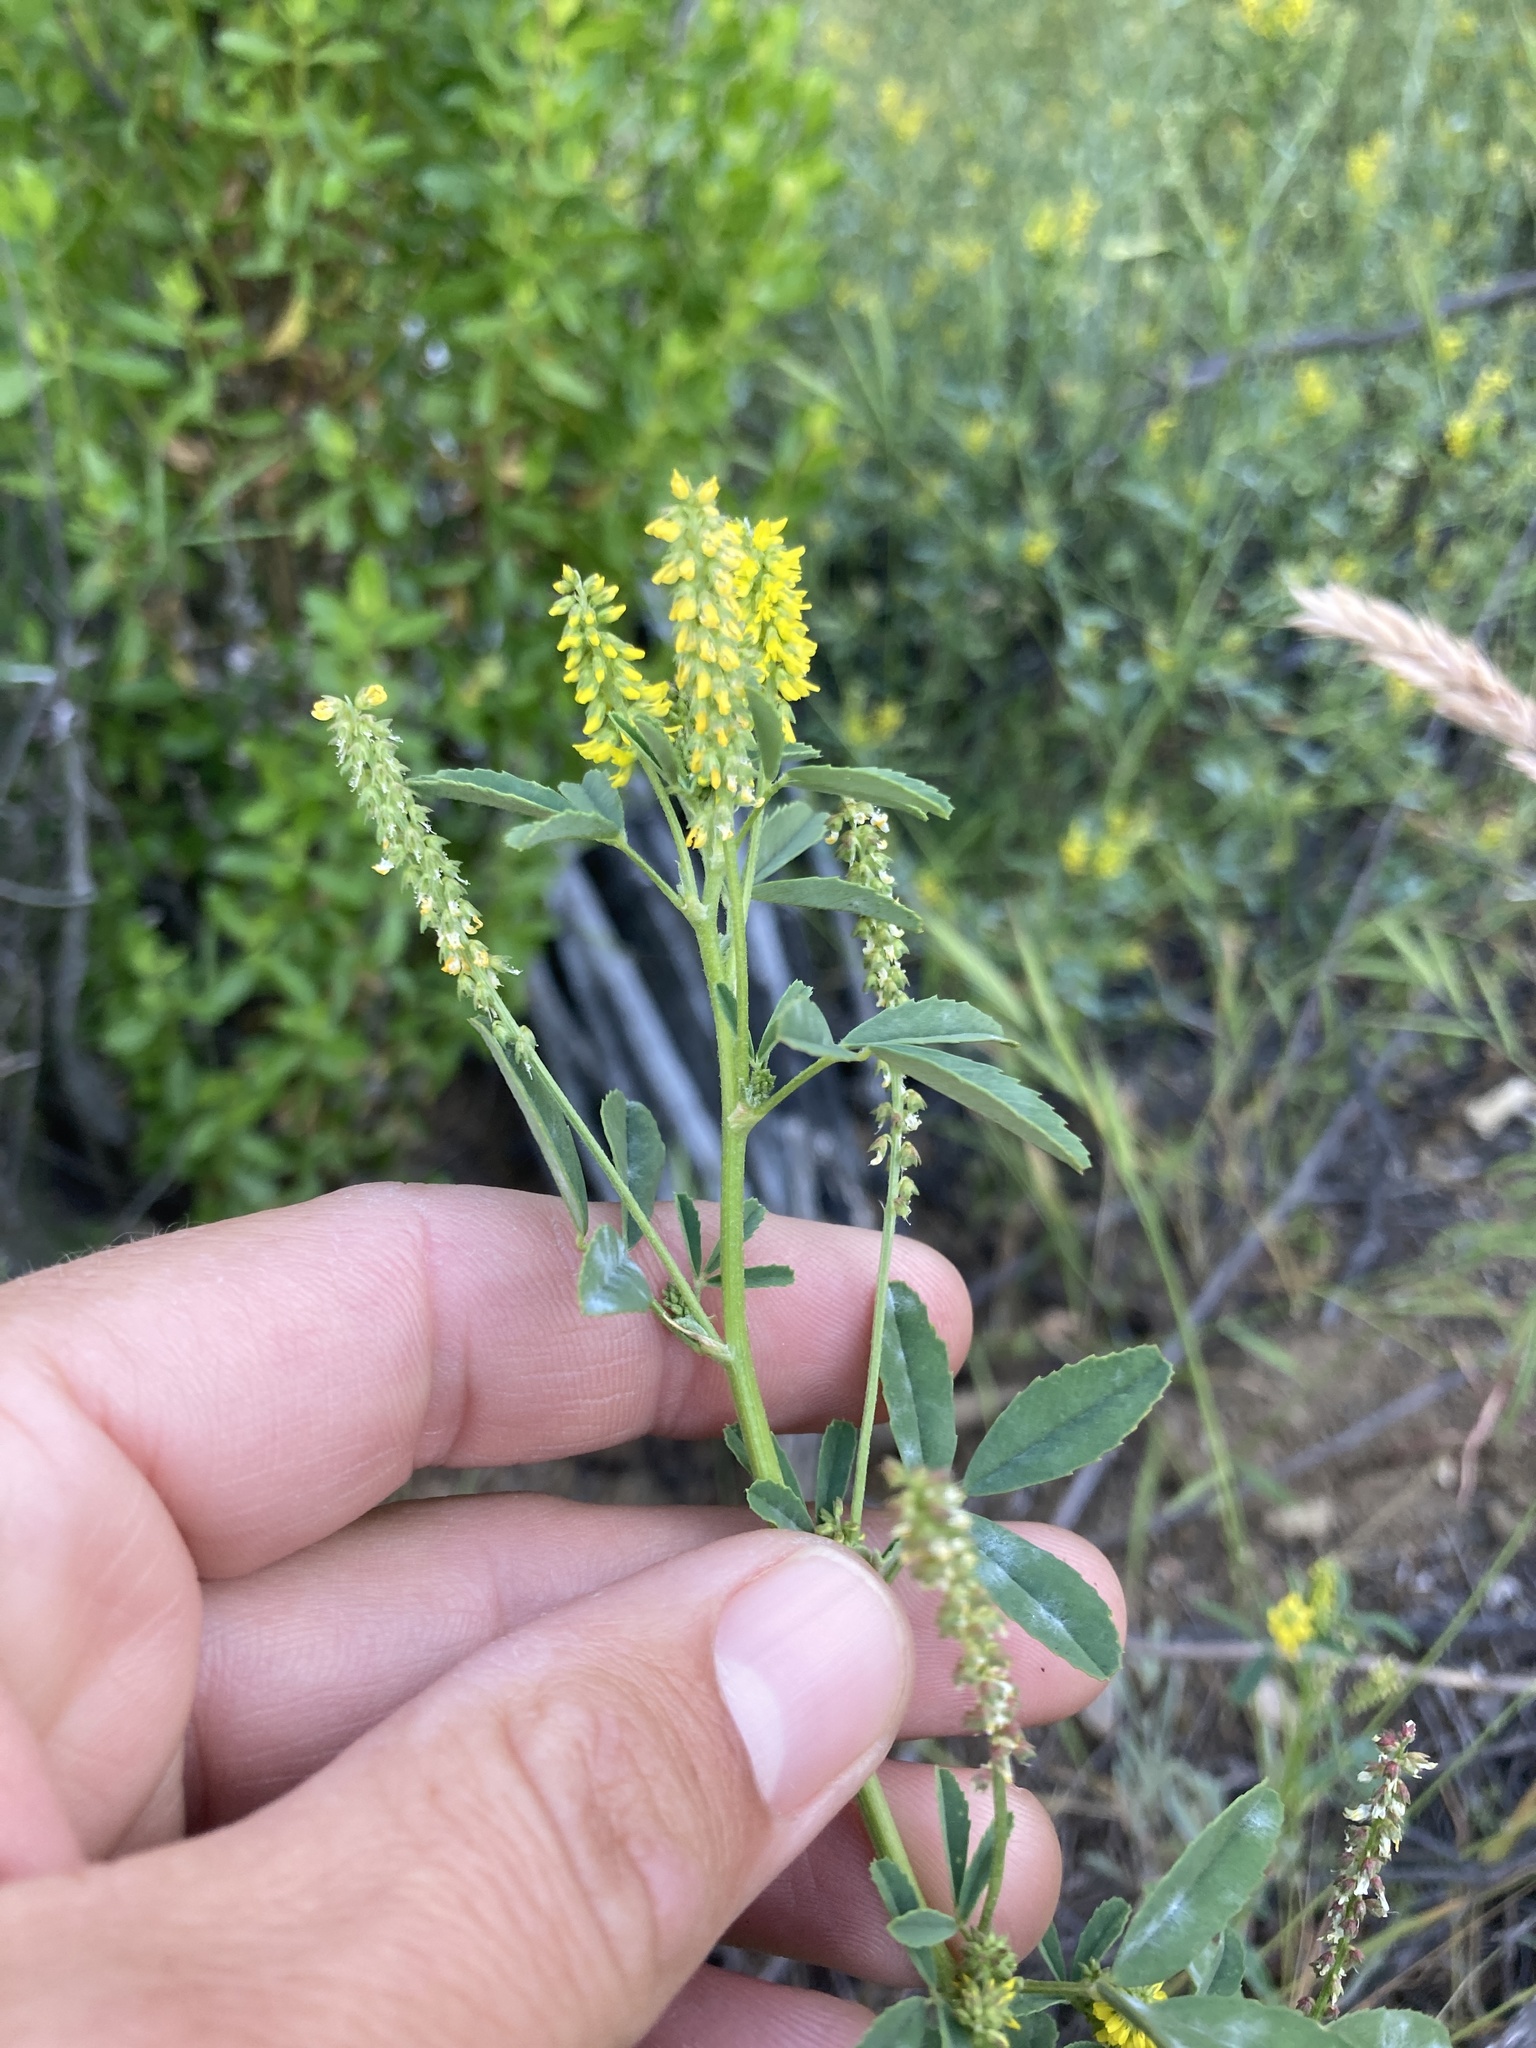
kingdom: Plantae
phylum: Tracheophyta
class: Magnoliopsida
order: Fabales
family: Fabaceae
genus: Melilotus
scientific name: Melilotus indicus
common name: Small melilot
